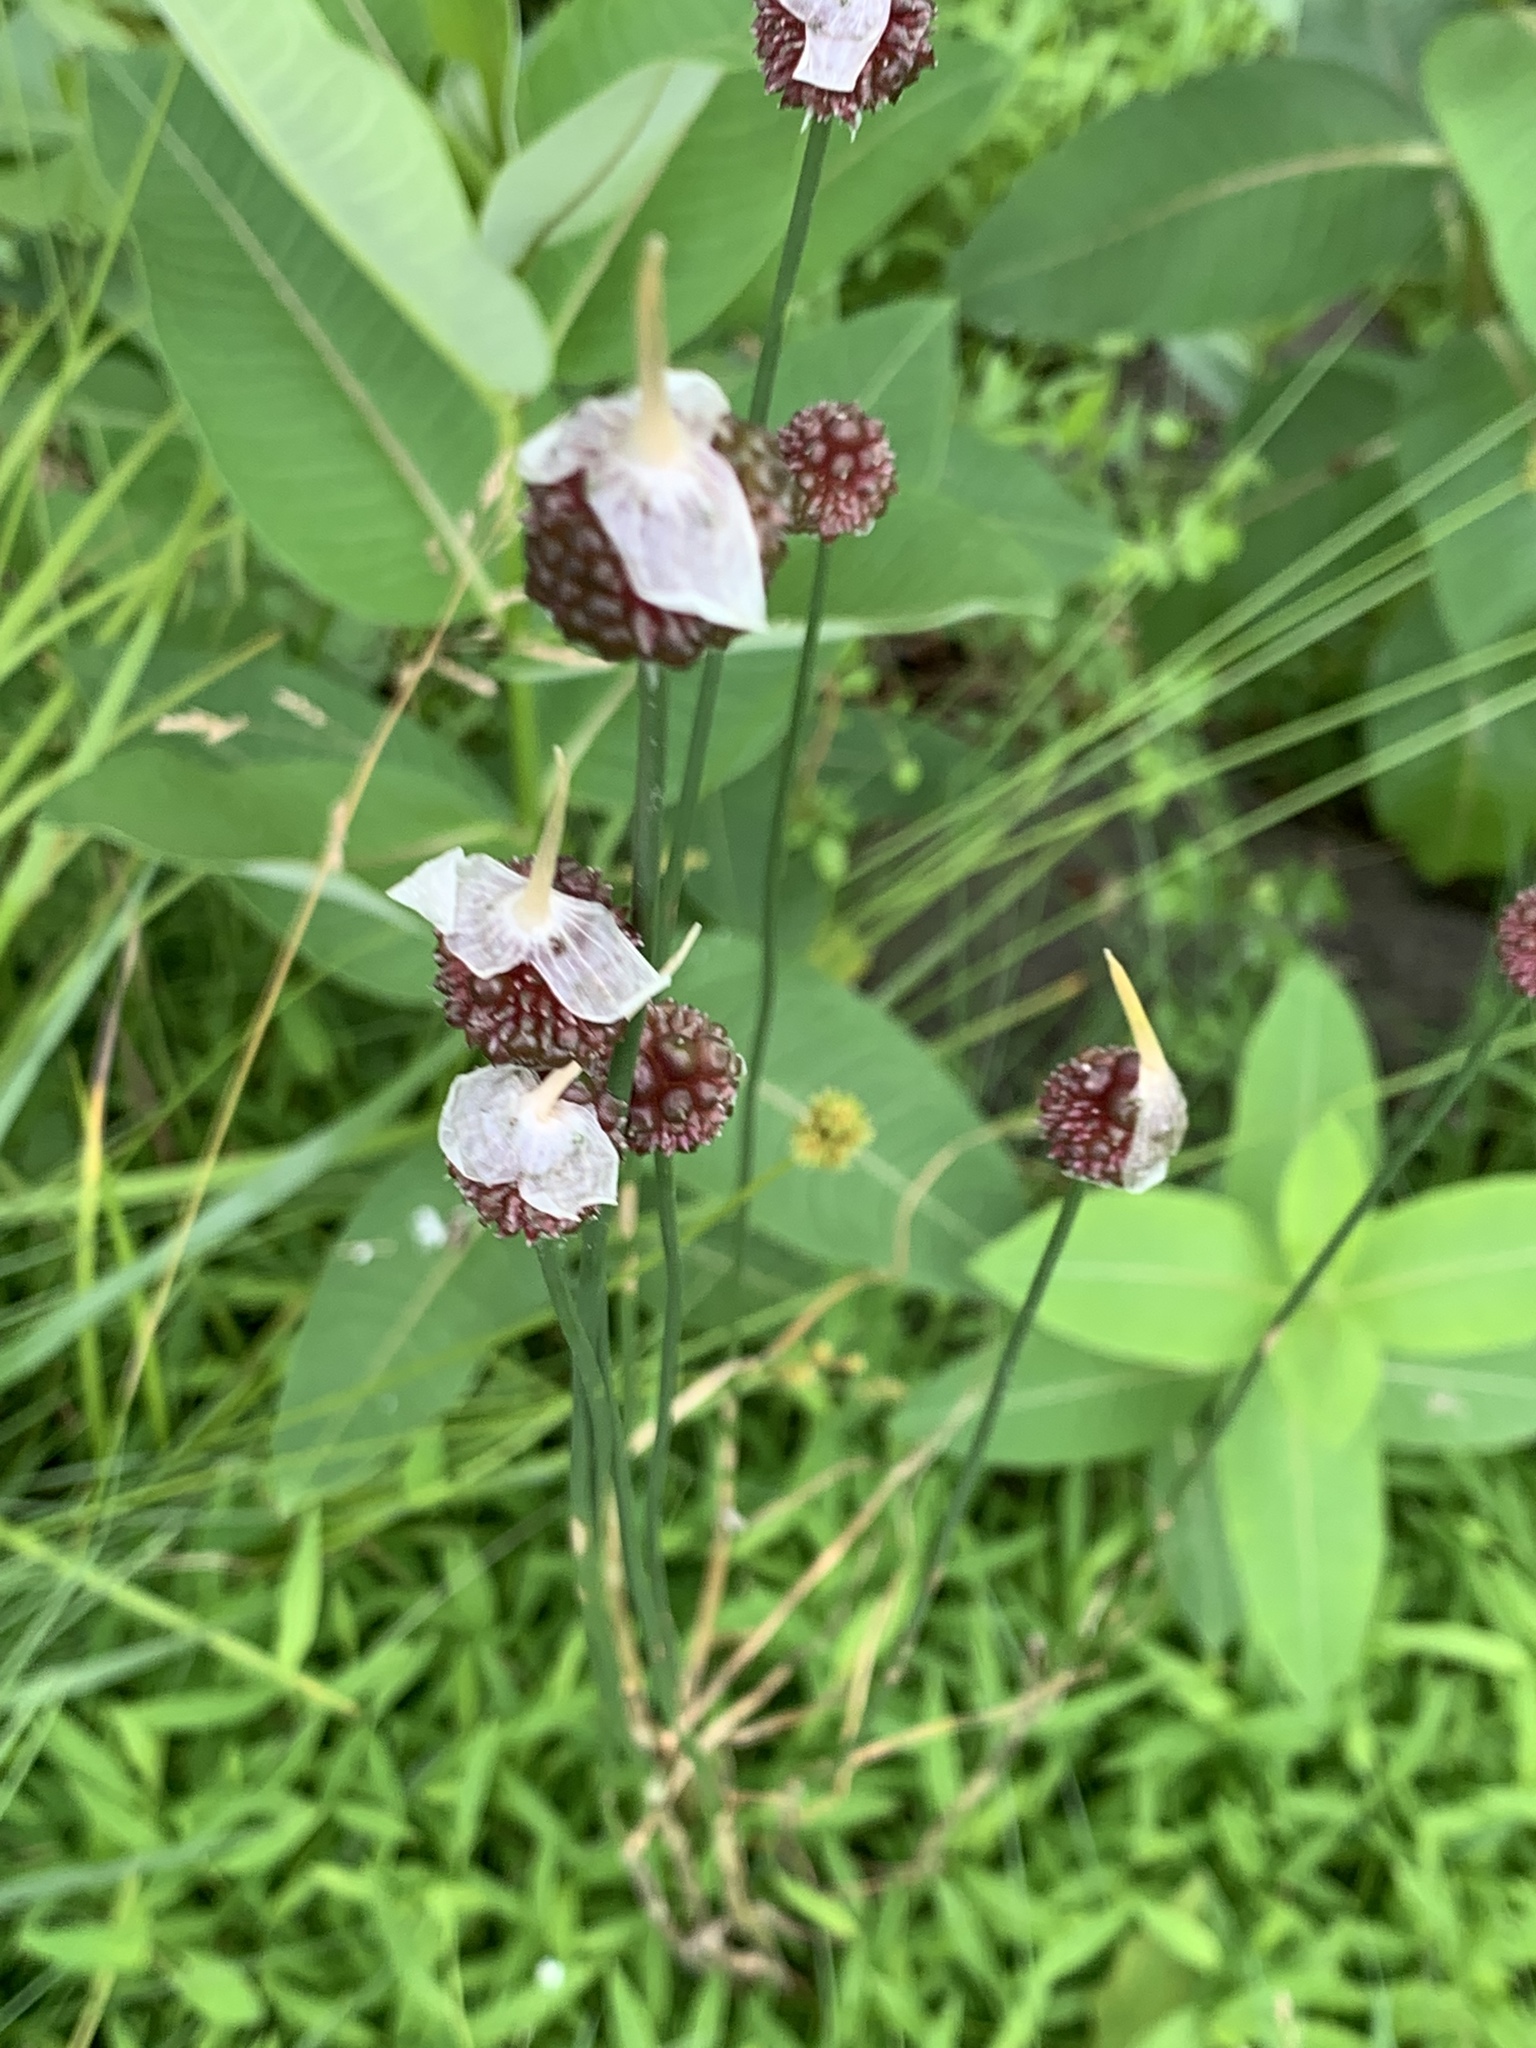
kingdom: Plantae
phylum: Tracheophyta
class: Liliopsida
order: Asparagales
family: Amaryllidaceae
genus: Allium
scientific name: Allium vineale
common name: Crow garlic
